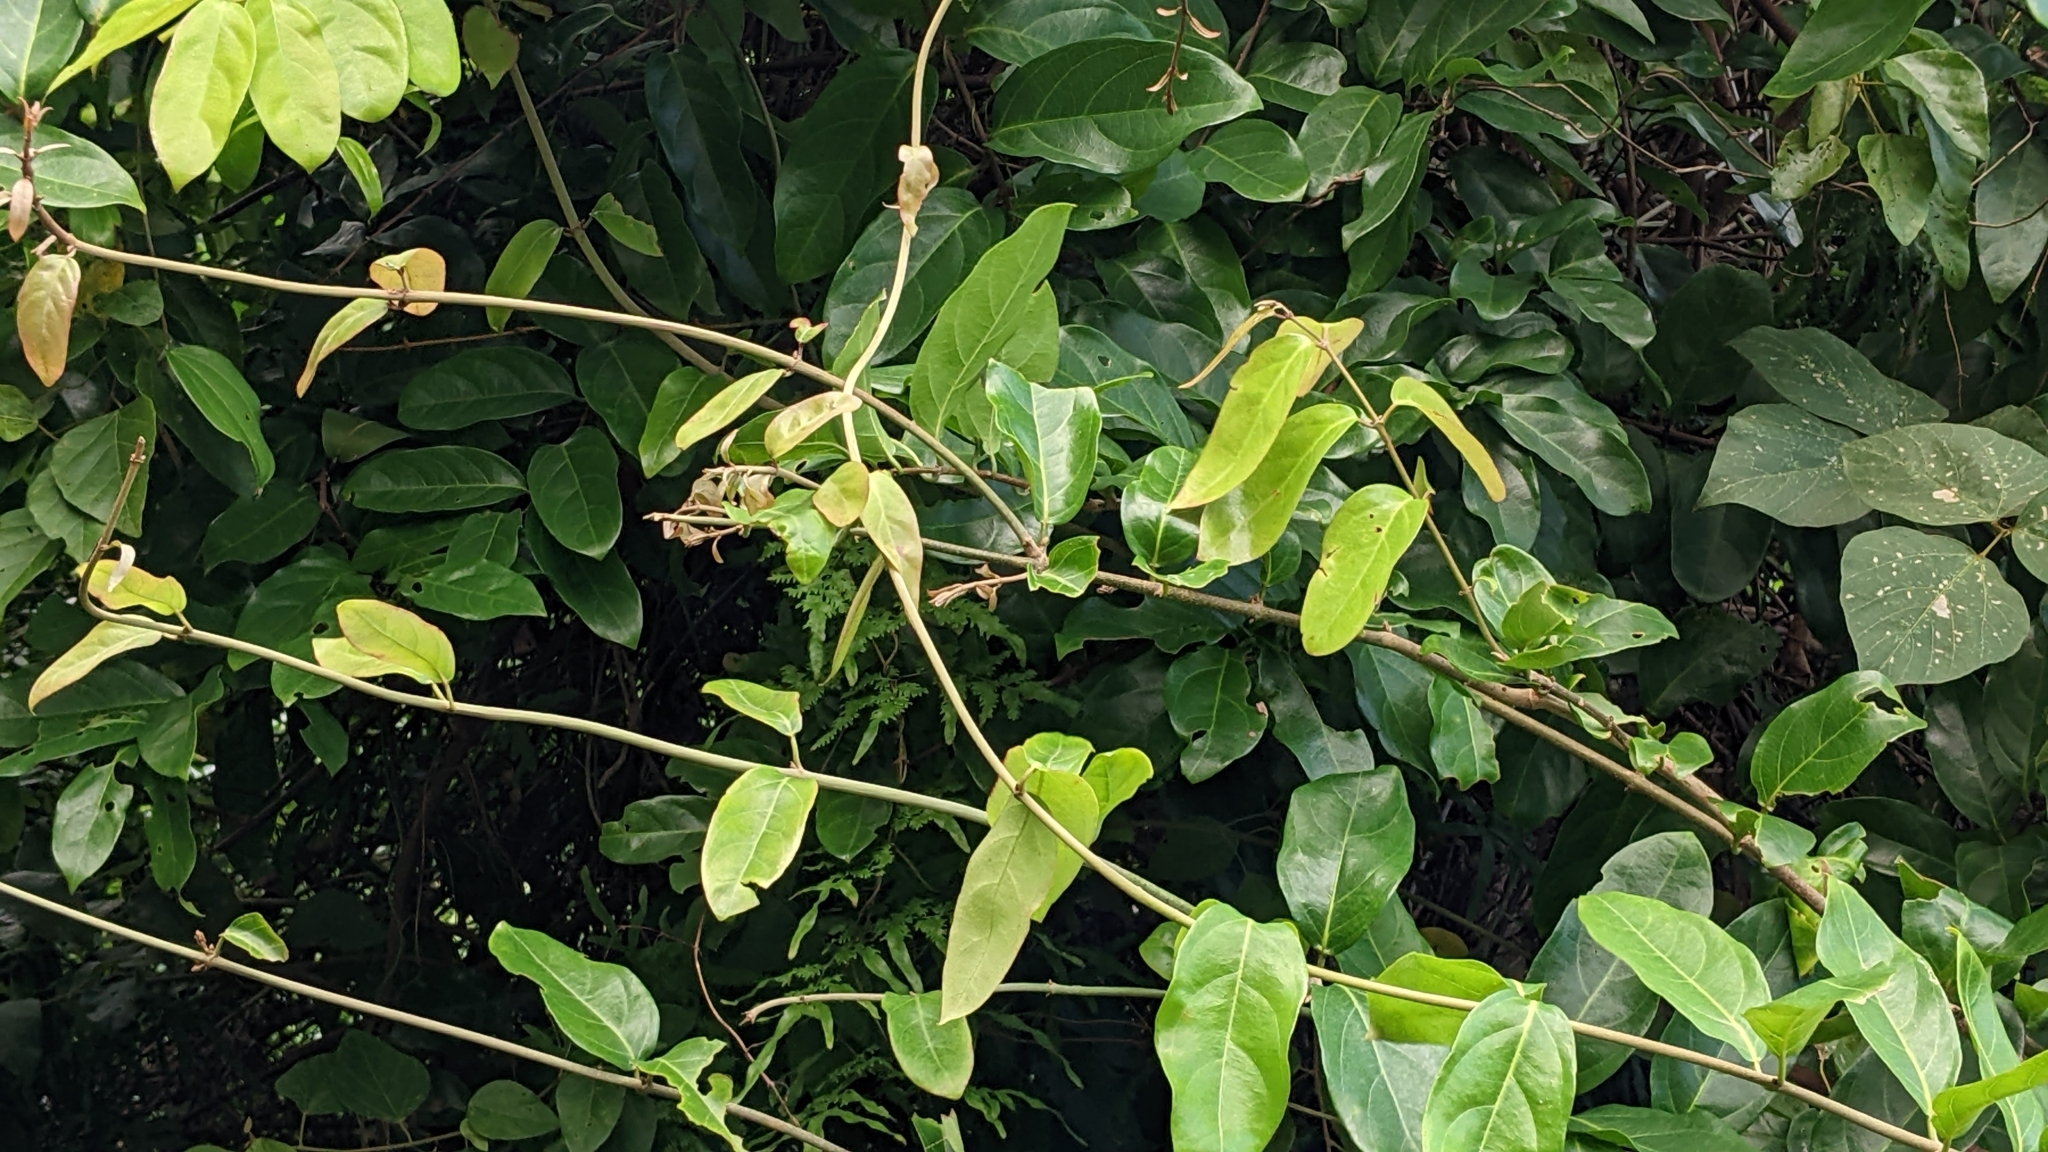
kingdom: Plantae
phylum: Tracheophyta
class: Magnoliopsida
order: Malpighiales
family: Malpighiaceae
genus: Hiptage
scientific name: Hiptage benghalensis
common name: Hiptage
